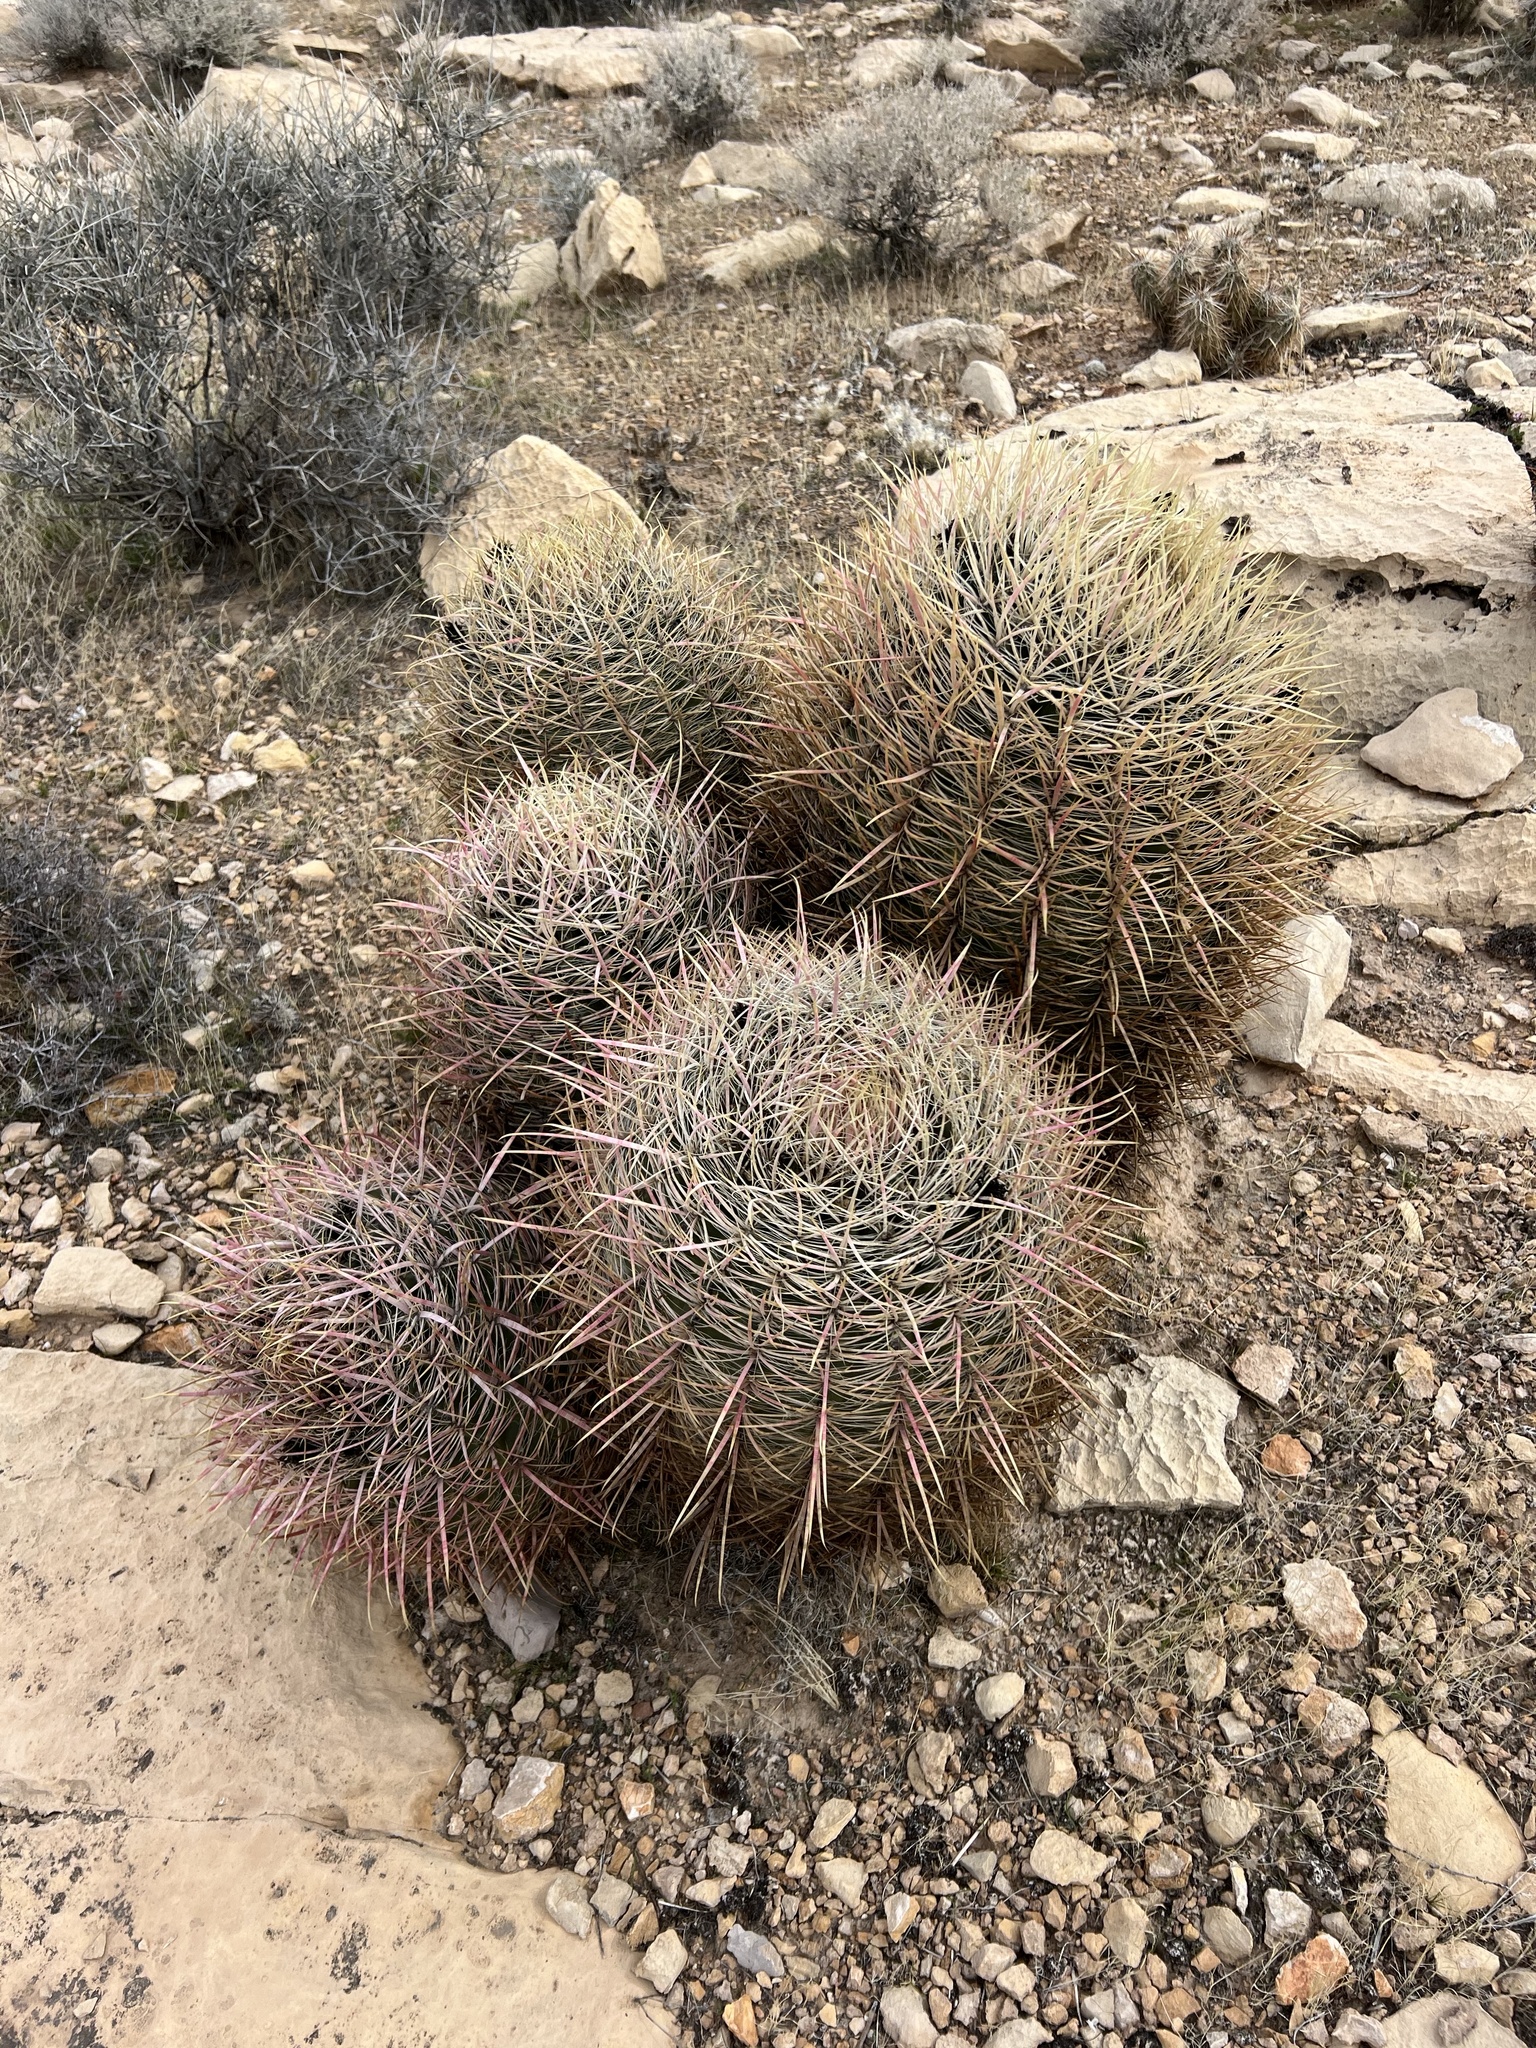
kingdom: Plantae
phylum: Tracheophyta
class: Magnoliopsida
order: Caryophyllales
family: Cactaceae
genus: Ferocactus
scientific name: Ferocactus cylindraceus
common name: California barrel cactus
